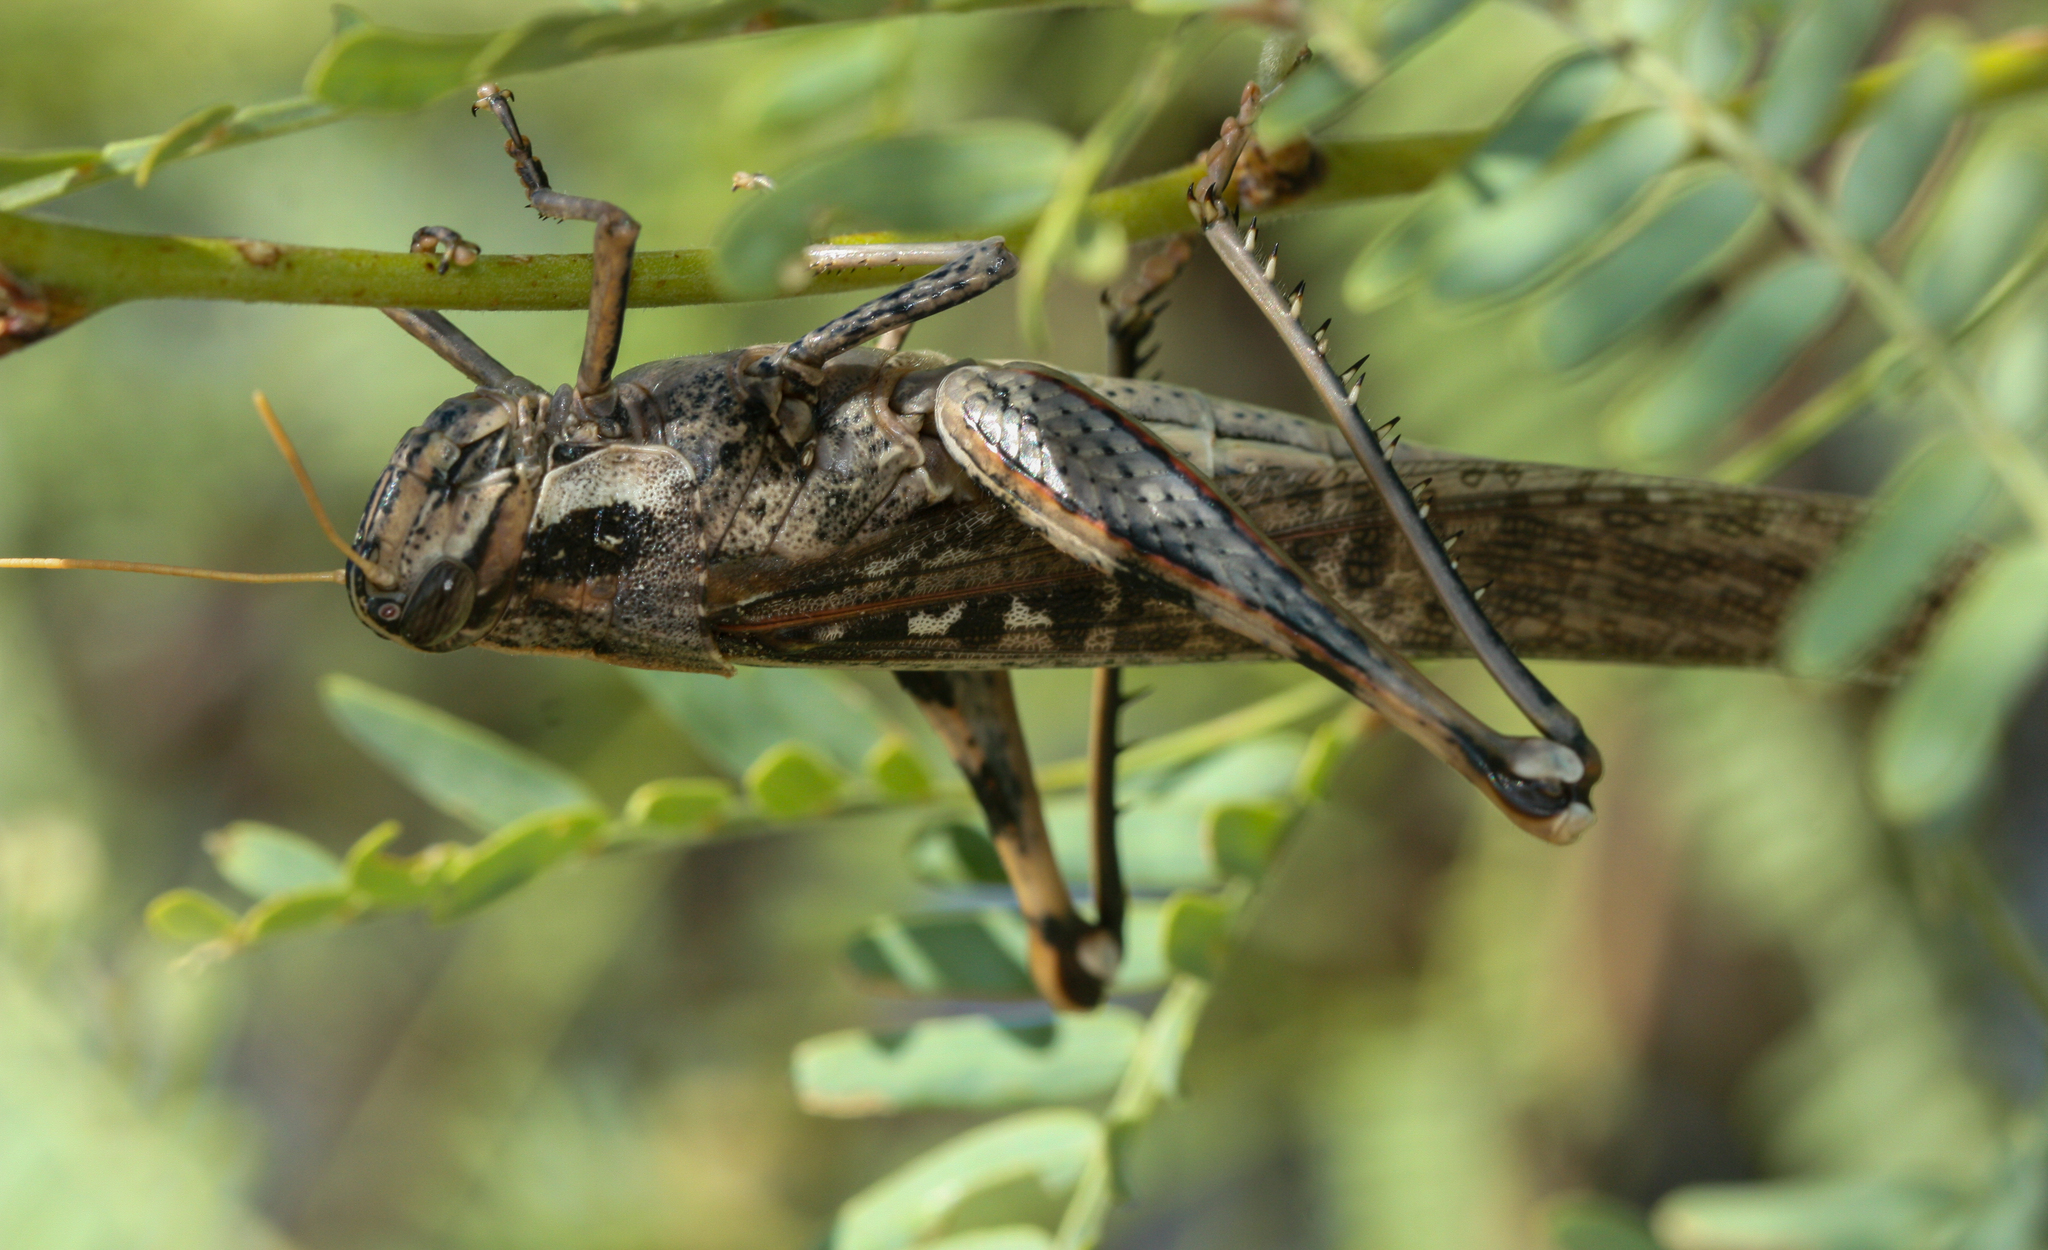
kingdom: Animalia
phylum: Arthropoda
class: Insecta
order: Orthoptera
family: Acrididae
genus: Schistocerca
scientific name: Schistocerca nitens
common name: Vagrant grasshopper
